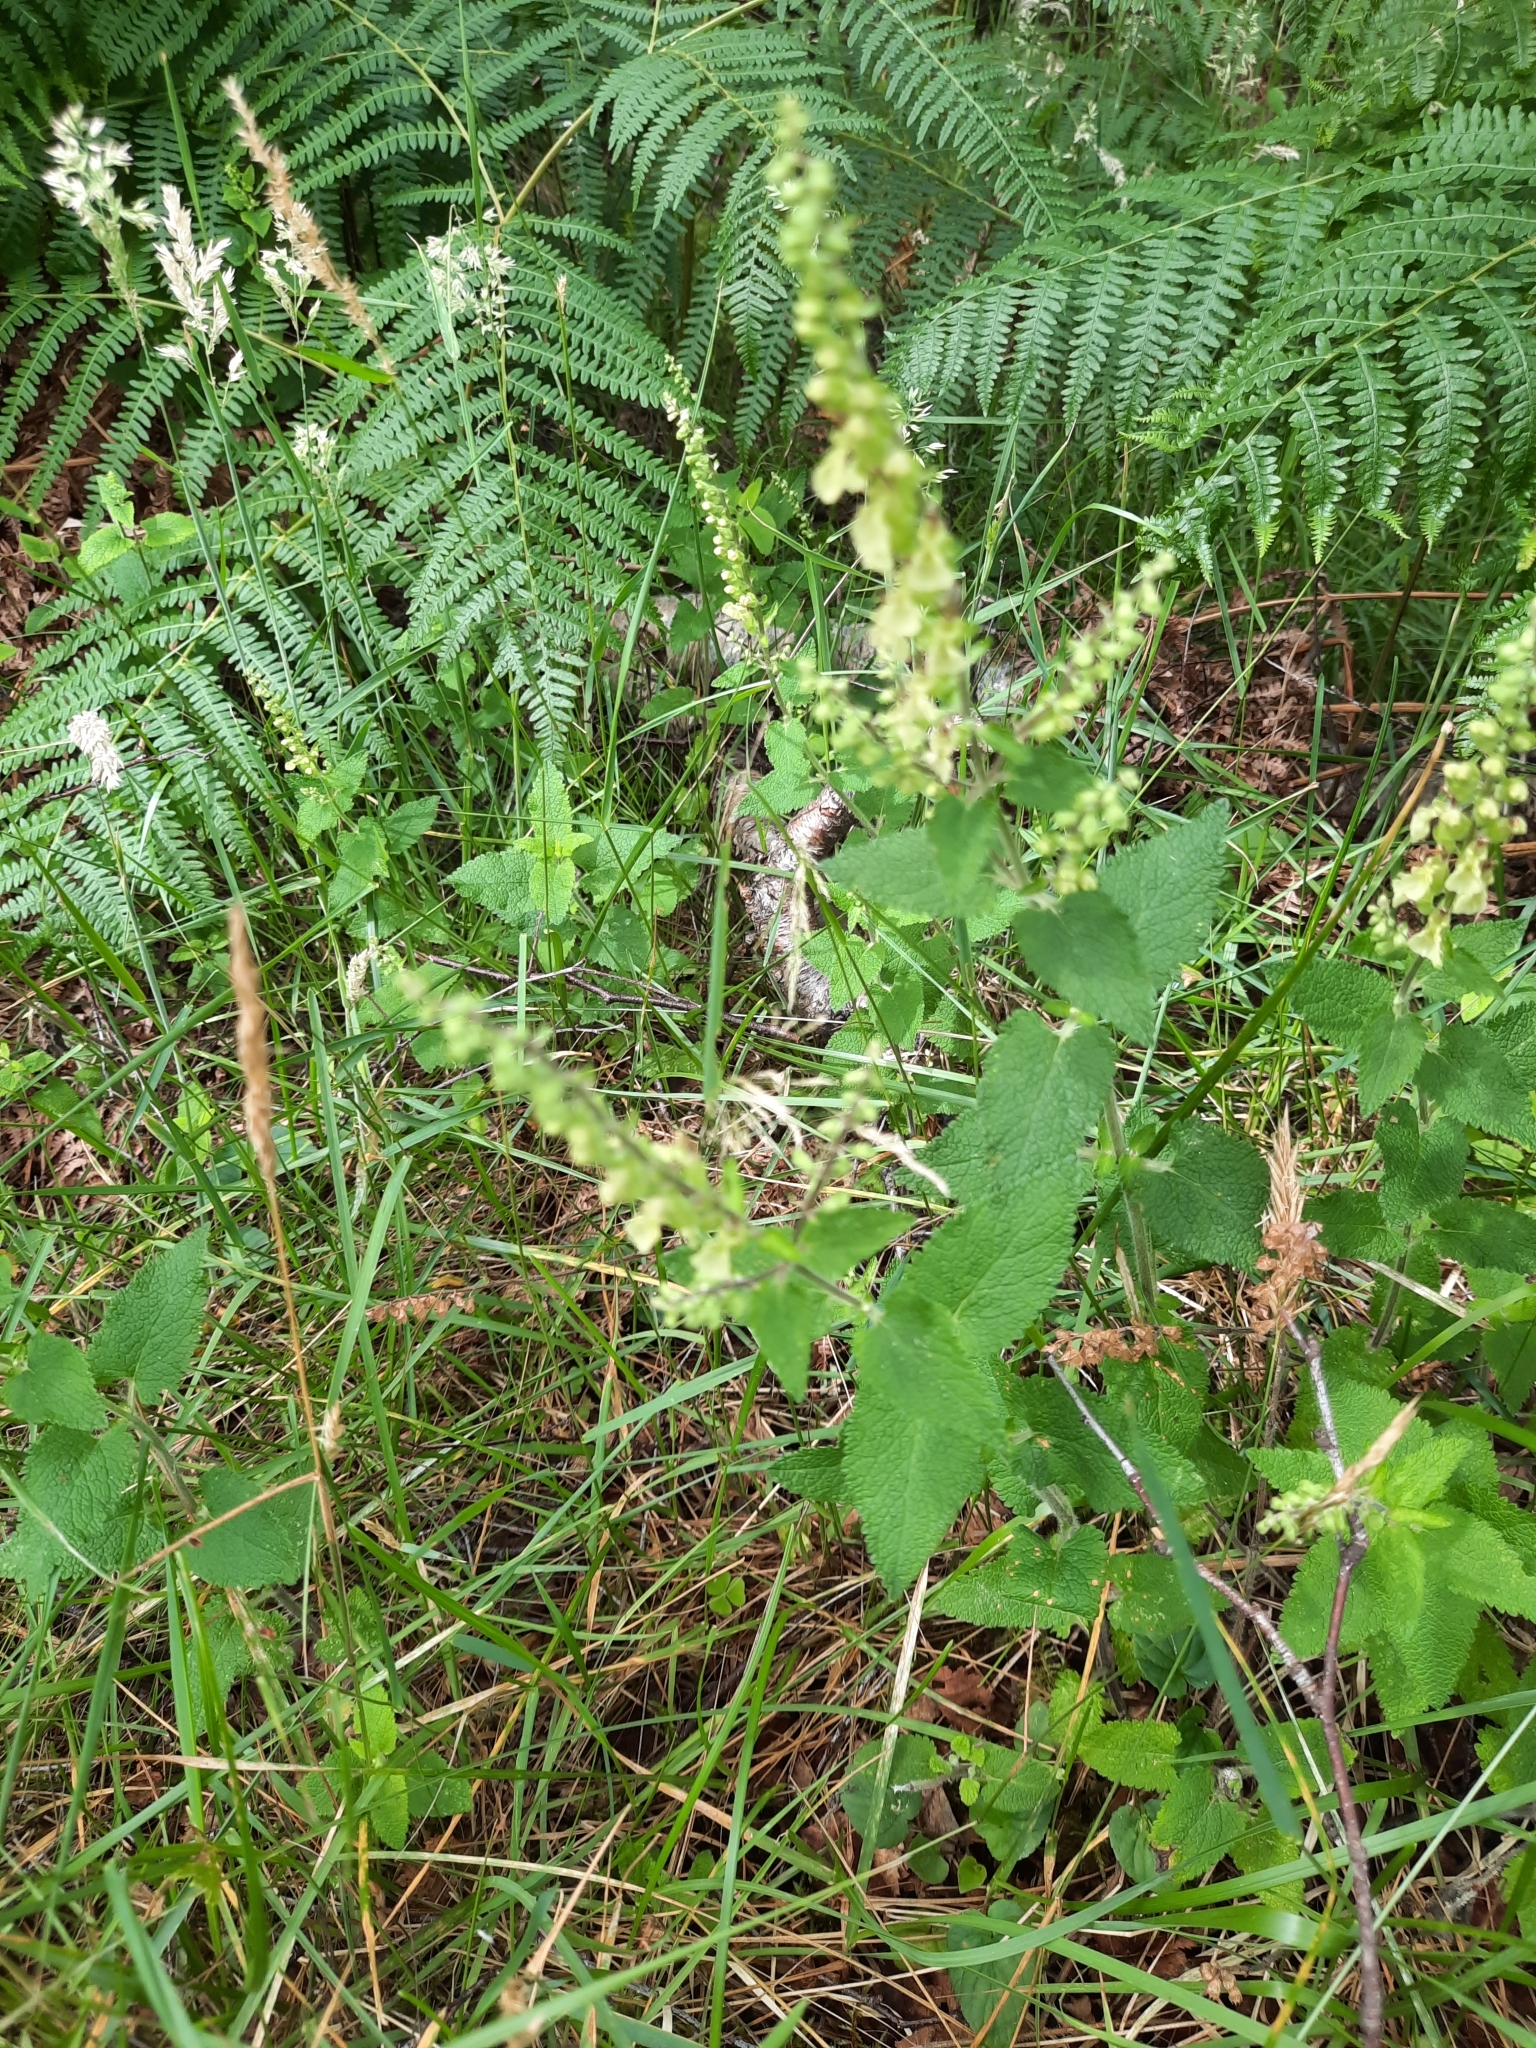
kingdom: Plantae
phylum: Tracheophyta
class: Magnoliopsida
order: Lamiales
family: Lamiaceae
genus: Teucrium
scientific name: Teucrium scorodonia
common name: Woodland germander
